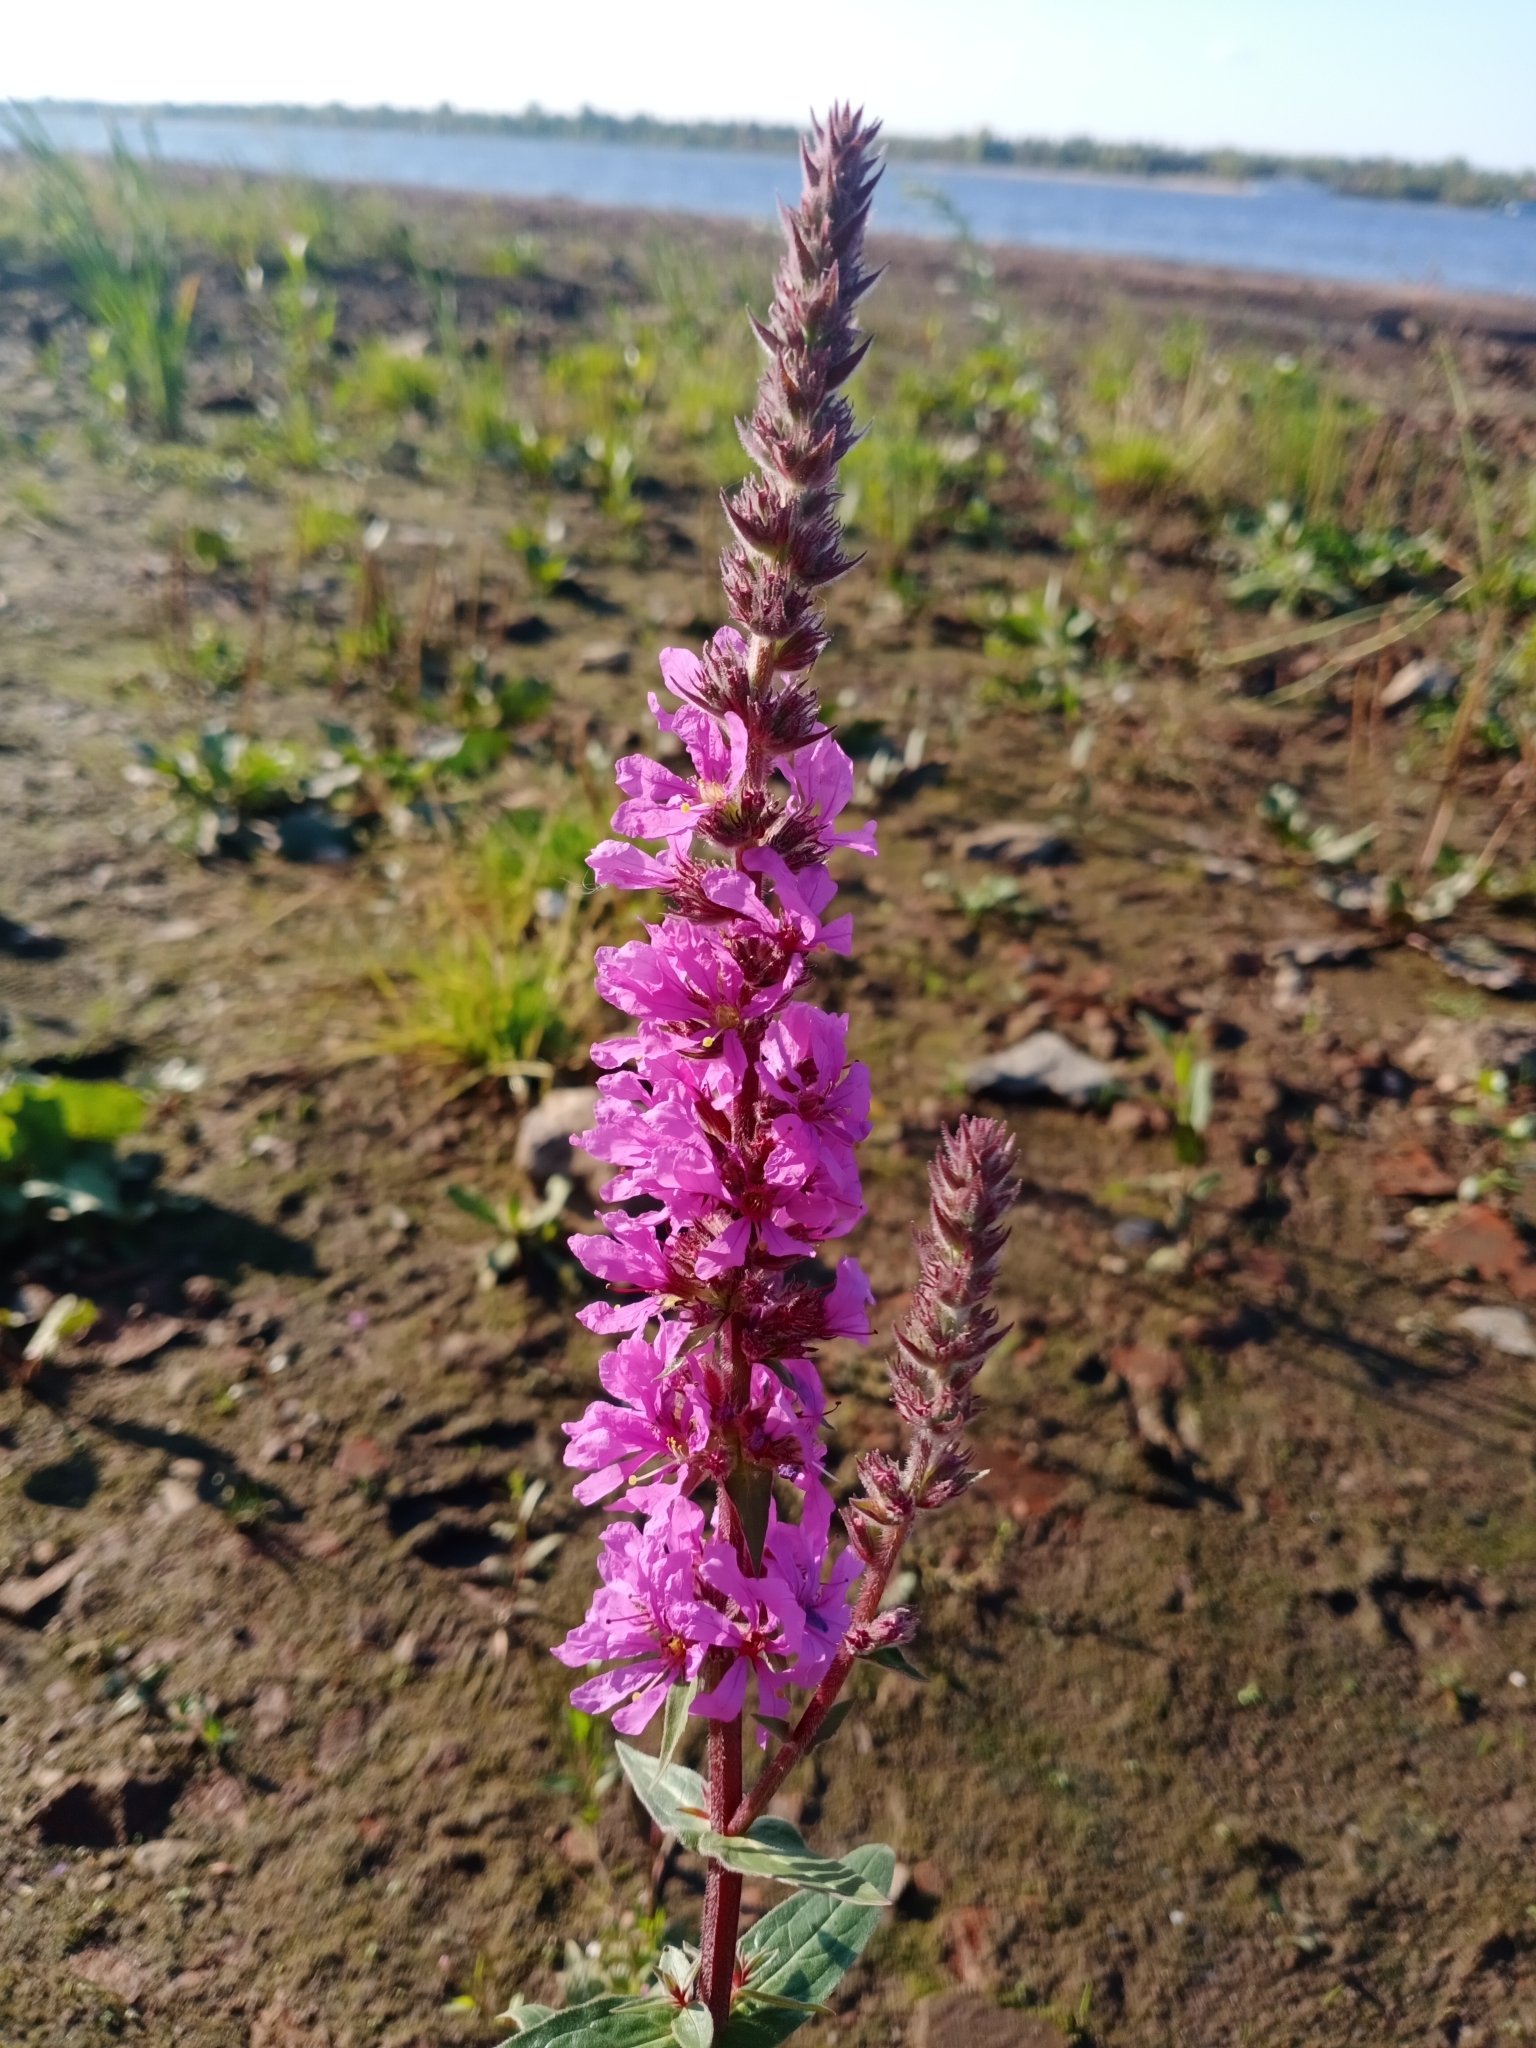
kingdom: Plantae
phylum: Tracheophyta
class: Magnoliopsida
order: Myrtales
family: Lythraceae
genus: Lythrum
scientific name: Lythrum salicaria
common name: Purple loosestrife
